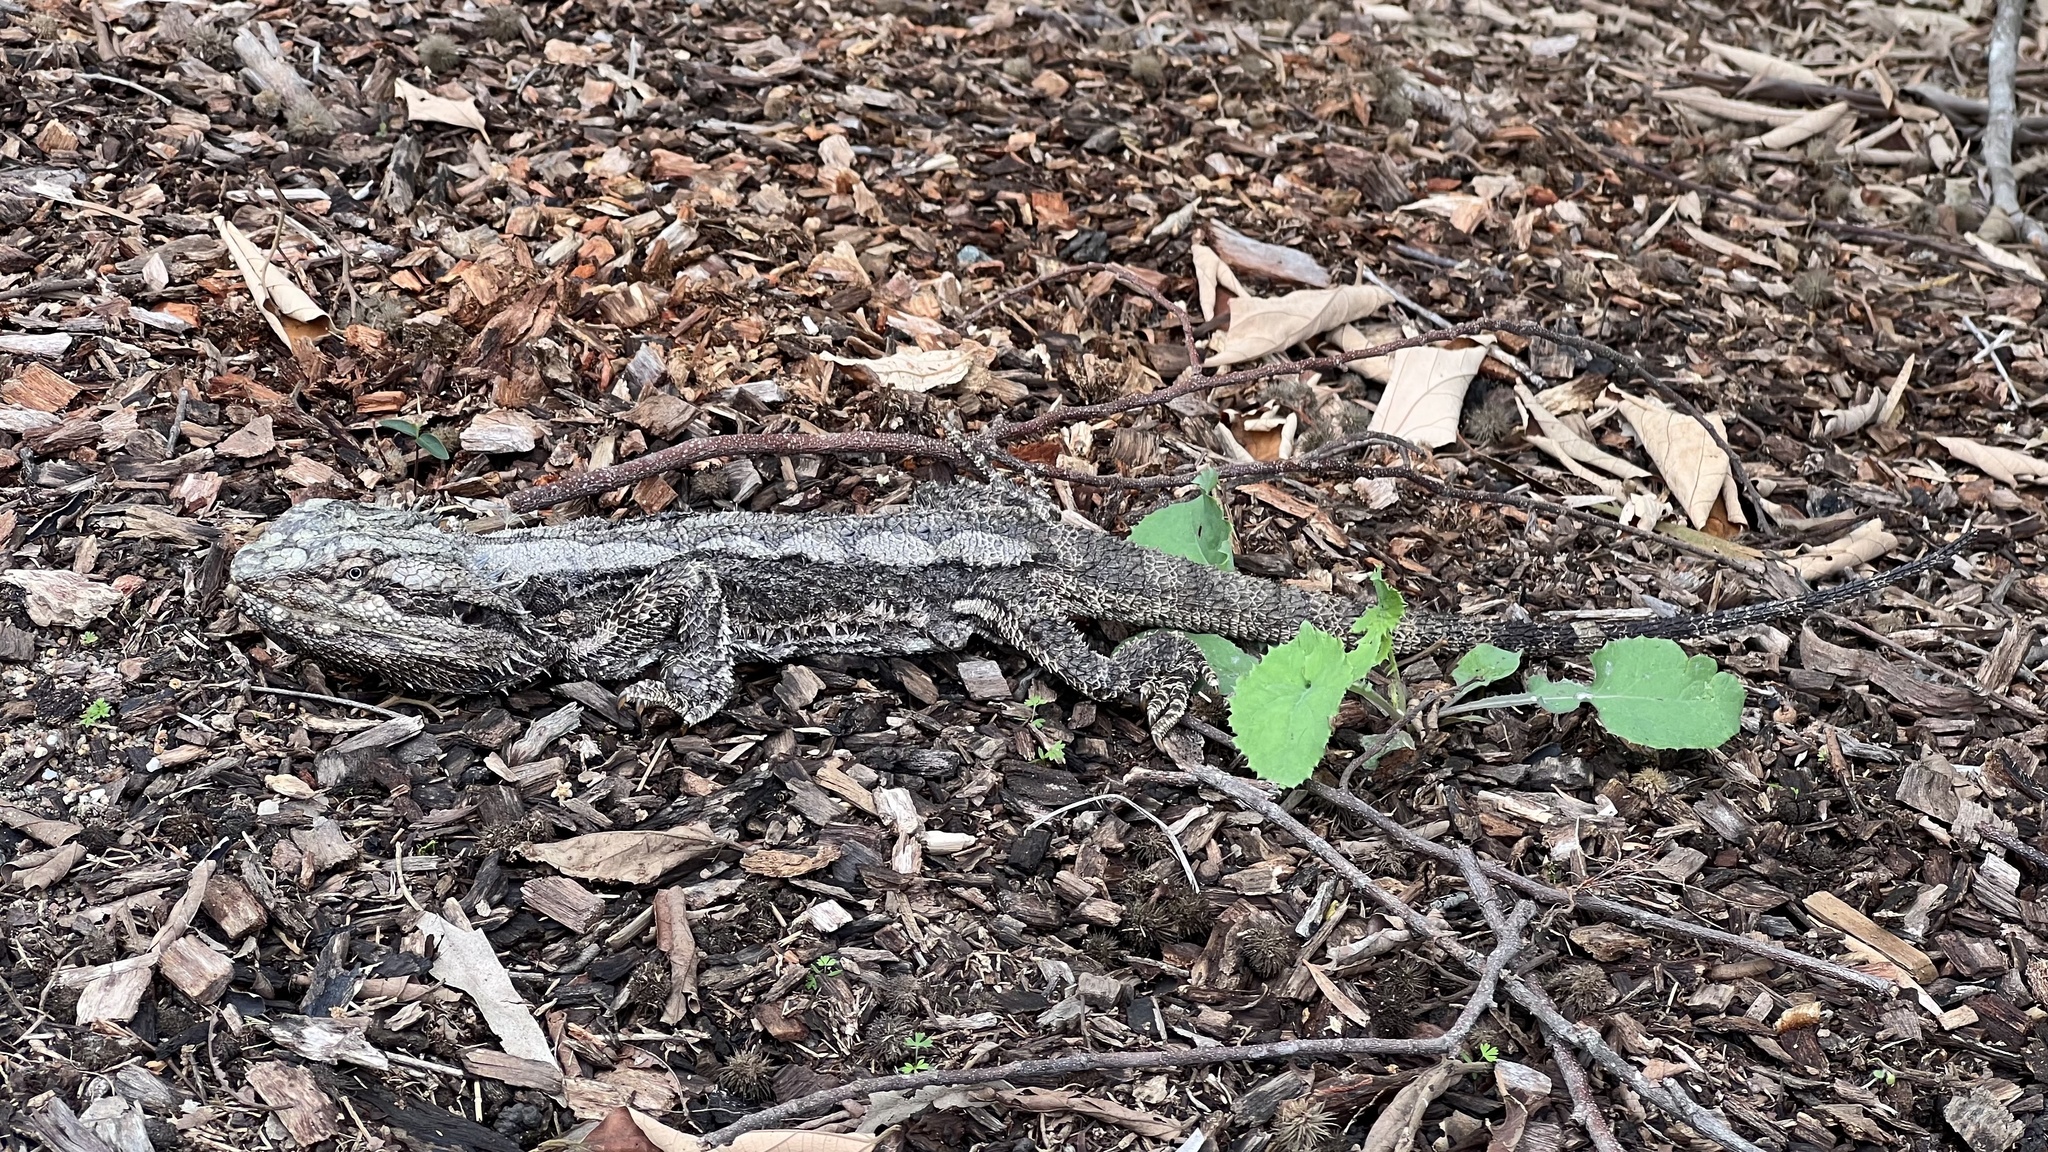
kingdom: Animalia
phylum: Chordata
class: Squamata
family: Agamidae
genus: Pogona
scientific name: Pogona barbata
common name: Bearded dragon
